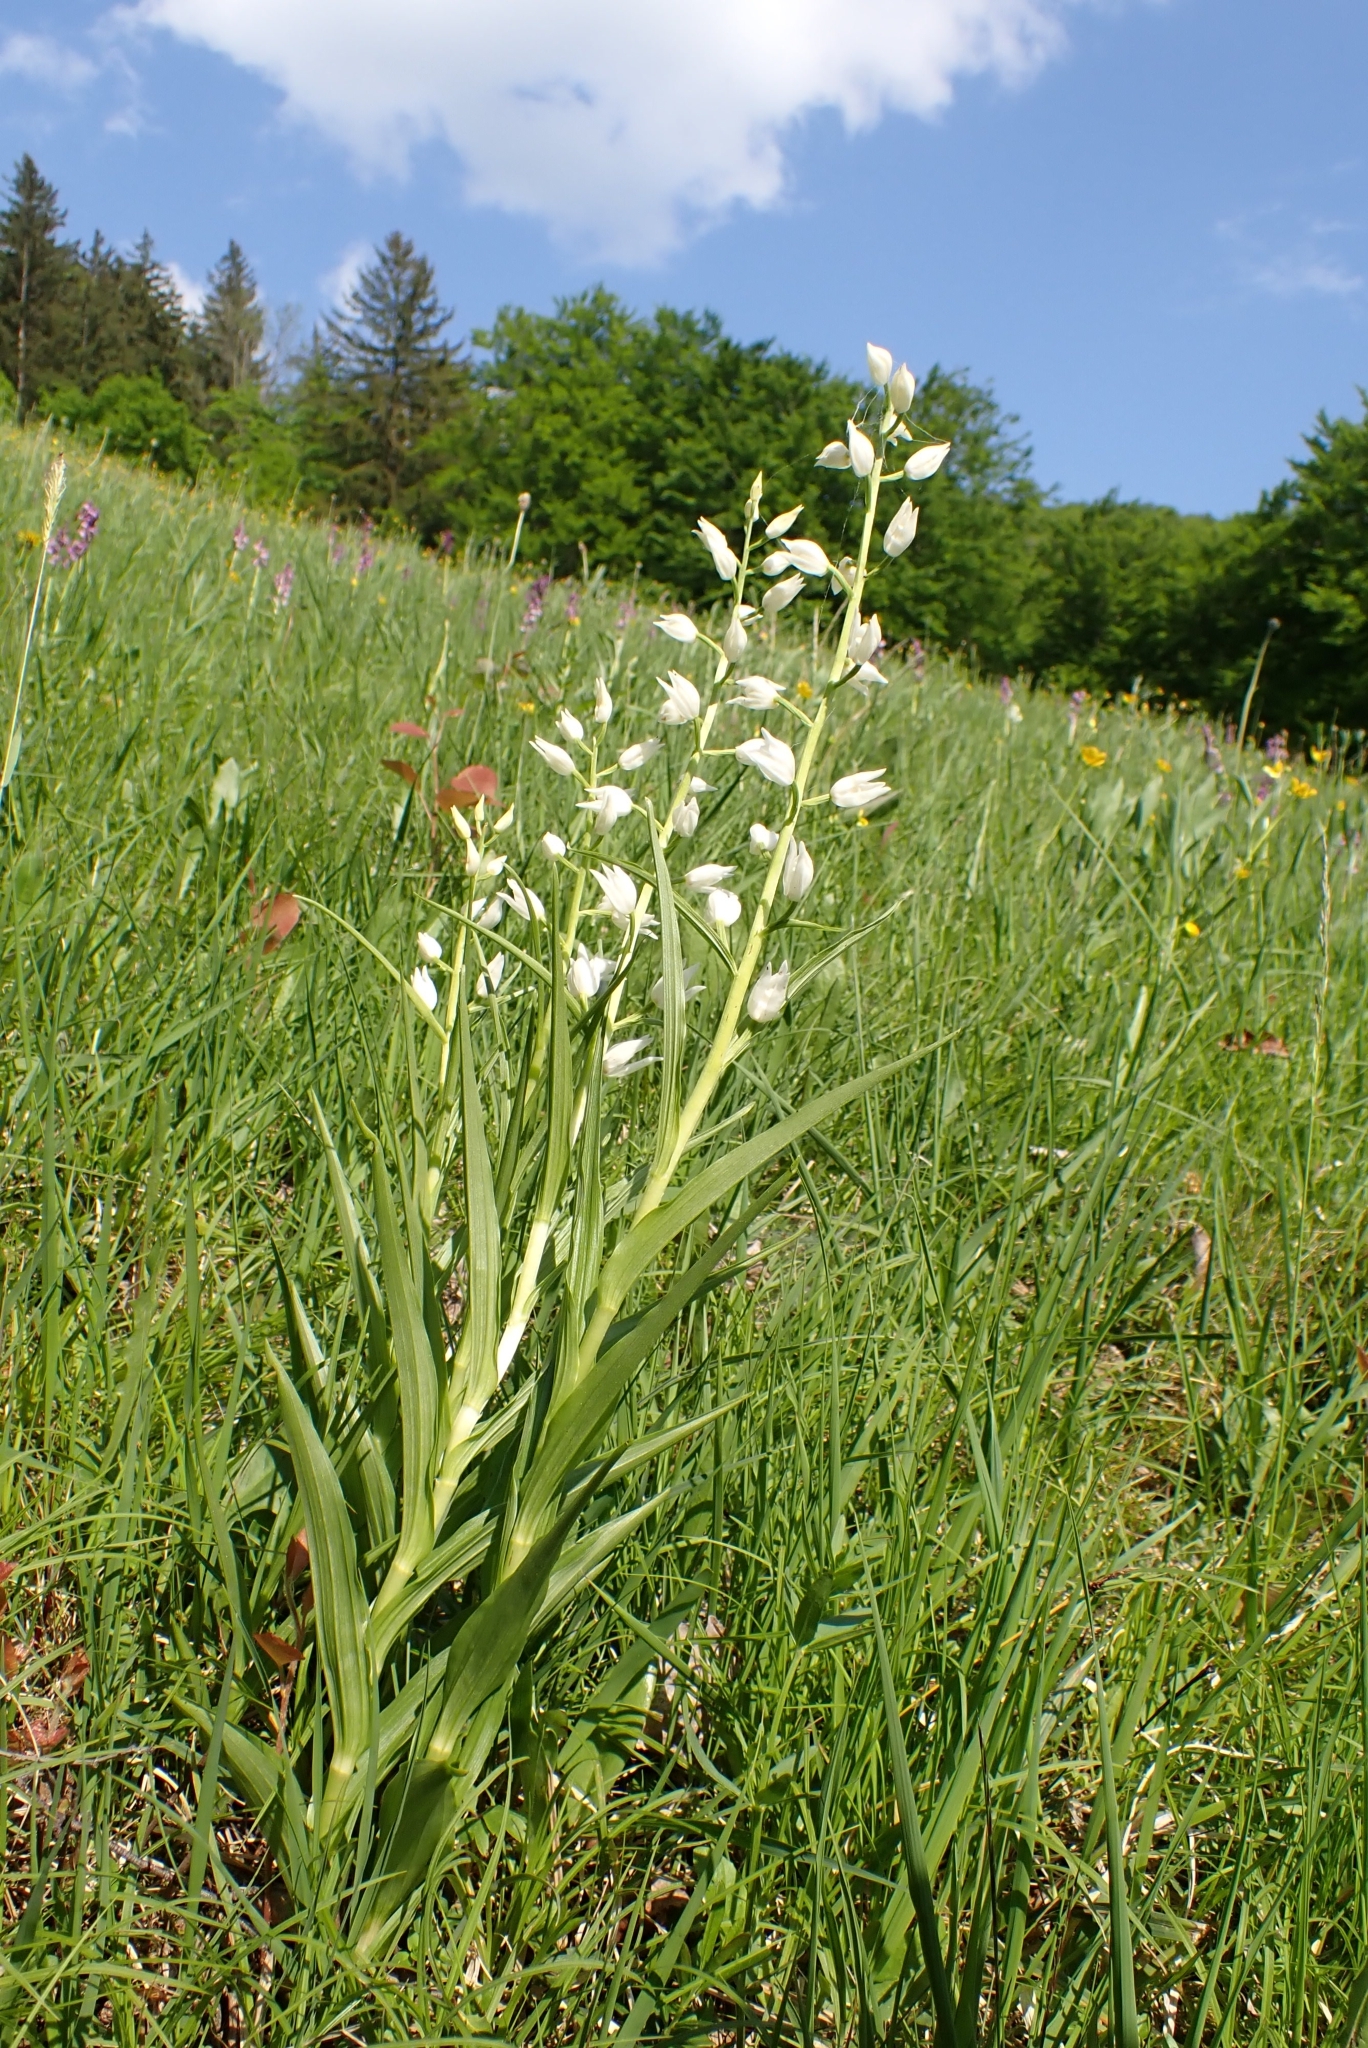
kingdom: Plantae
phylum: Tracheophyta
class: Liliopsida
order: Asparagales
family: Orchidaceae
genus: Cephalanthera
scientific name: Cephalanthera longifolia
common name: Narrow-leaved helleborine
